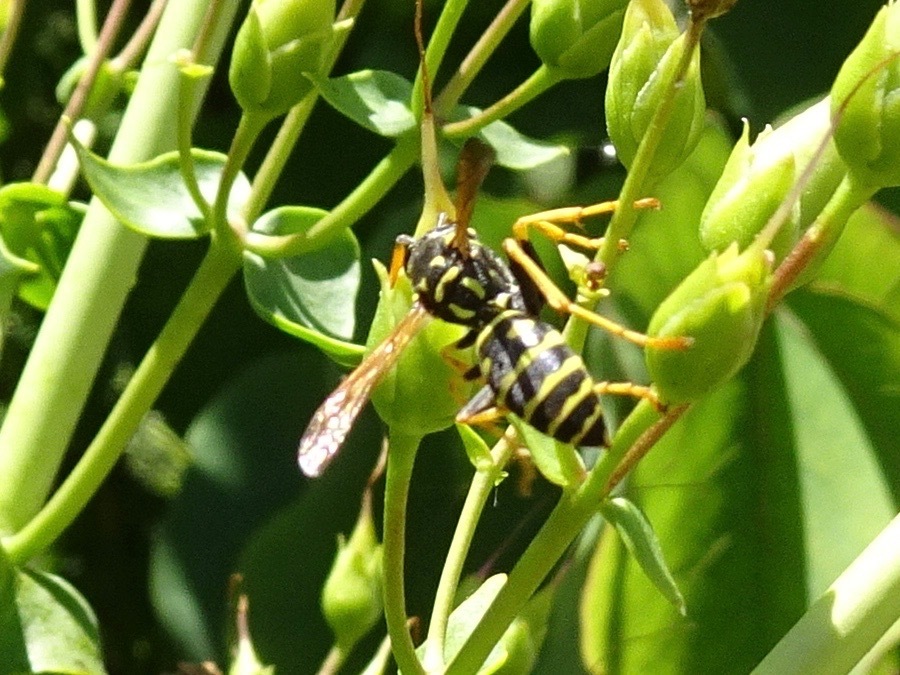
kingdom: Animalia
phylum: Arthropoda
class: Insecta
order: Hymenoptera
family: Eumenidae
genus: Polistes
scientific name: Polistes dominula
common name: Paper wasp
